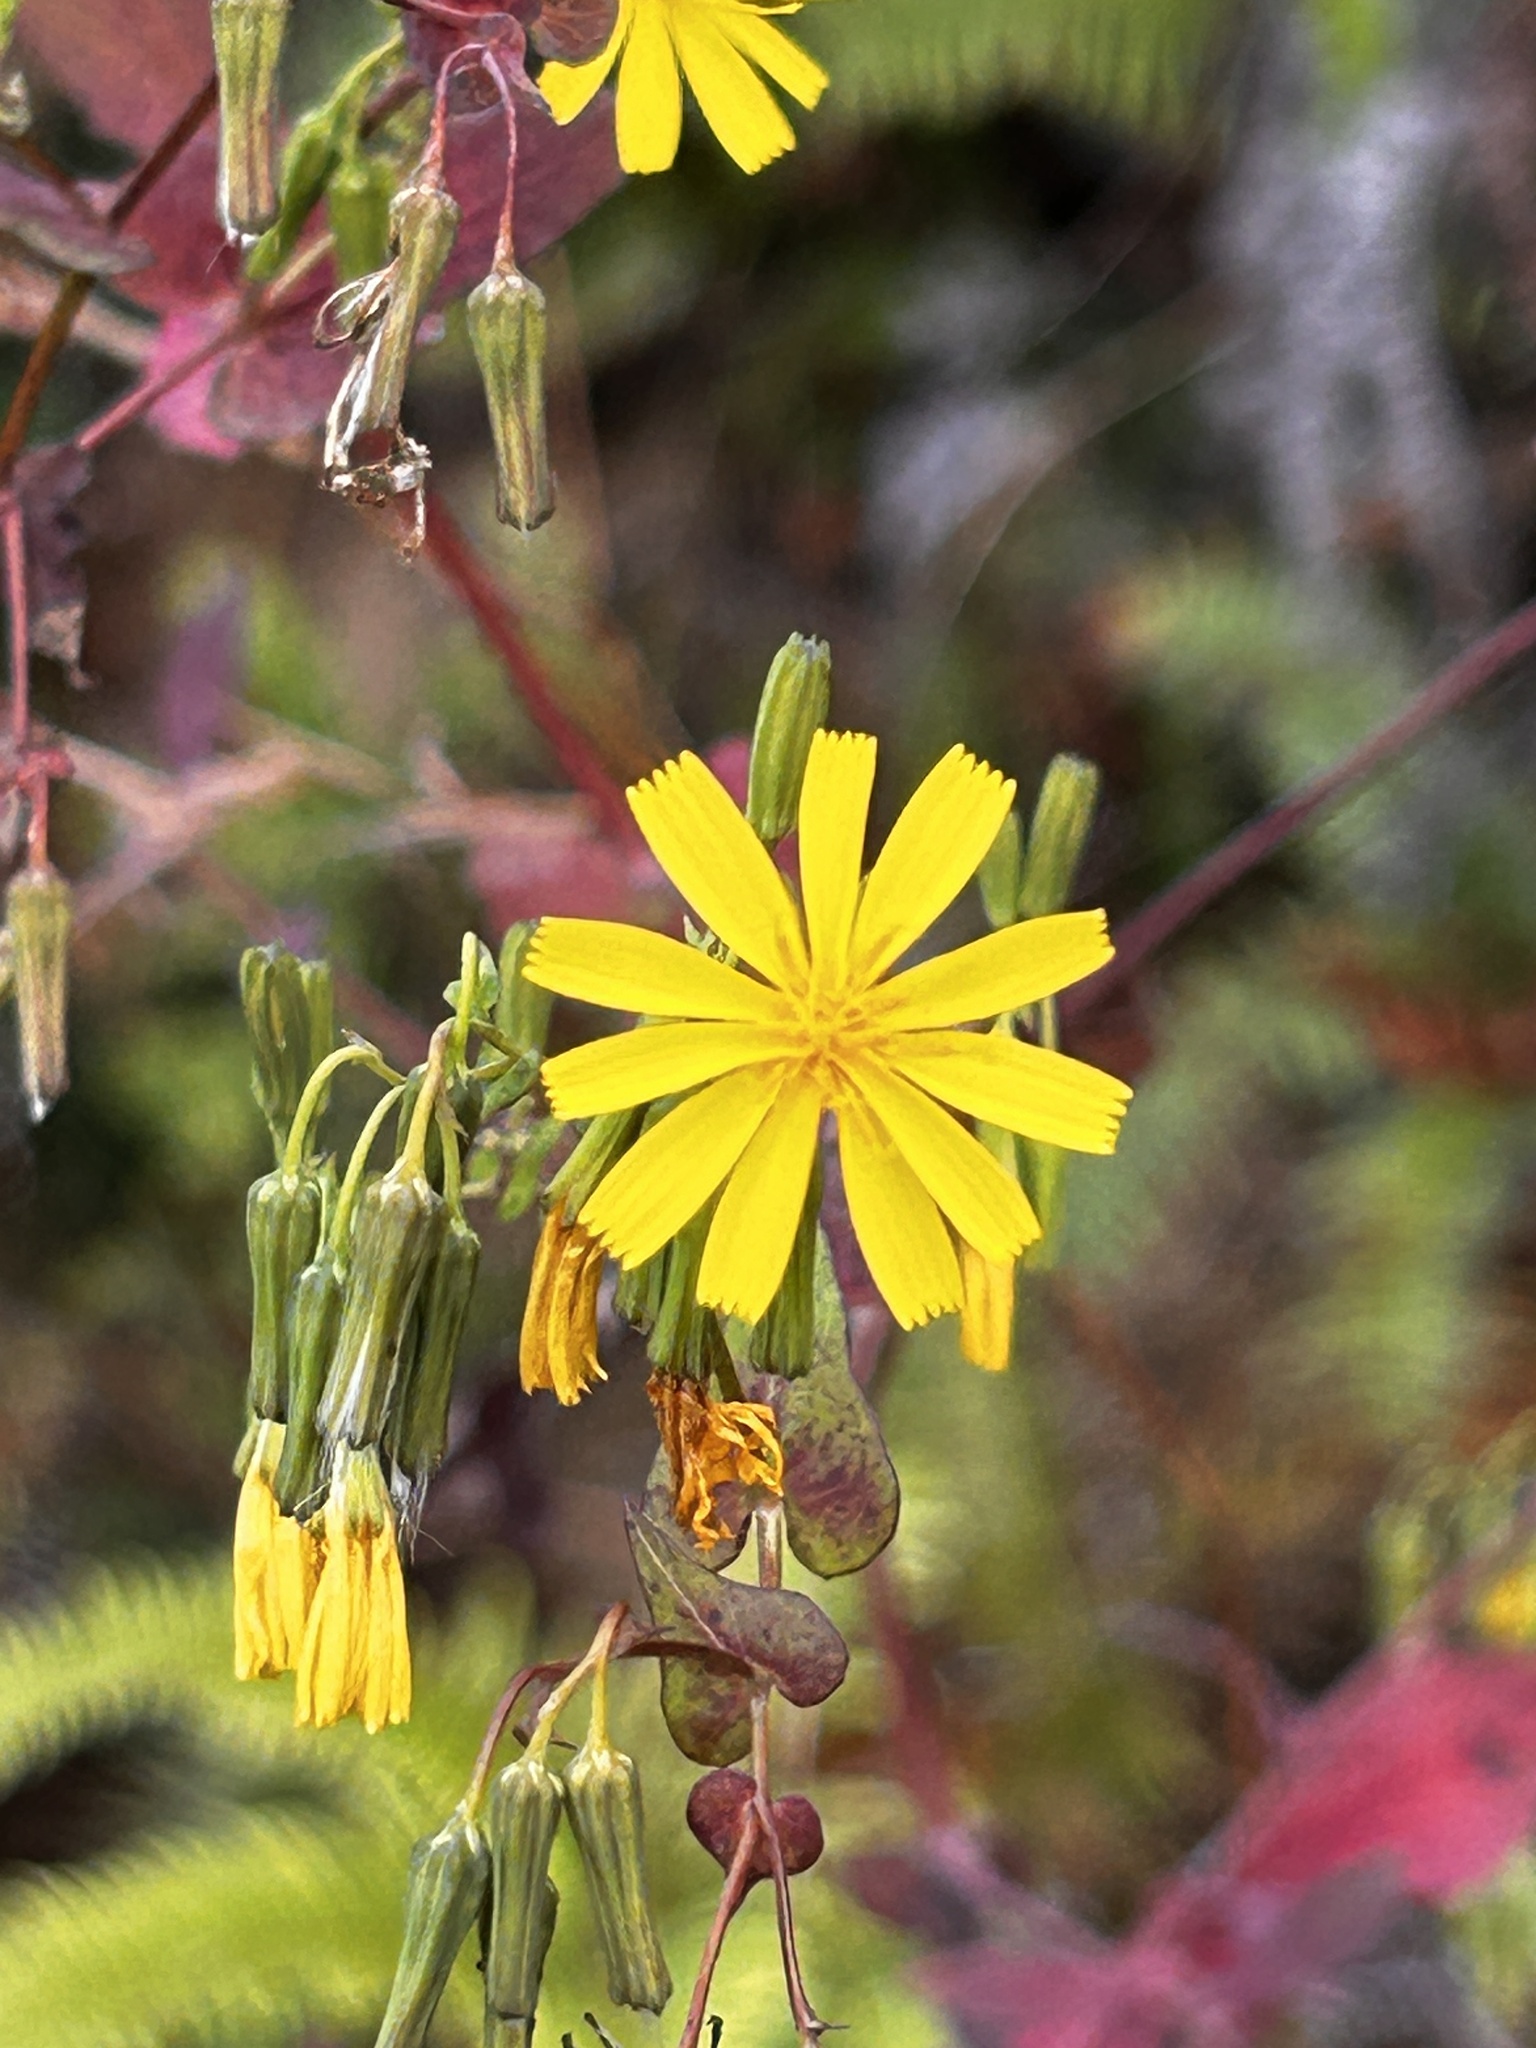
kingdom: Plantae
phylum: Tracheophyta
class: Magnoliopsida
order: Asterales
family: Asteraceae
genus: Crepidiastrum
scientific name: Crepidiastrum denticulatum
